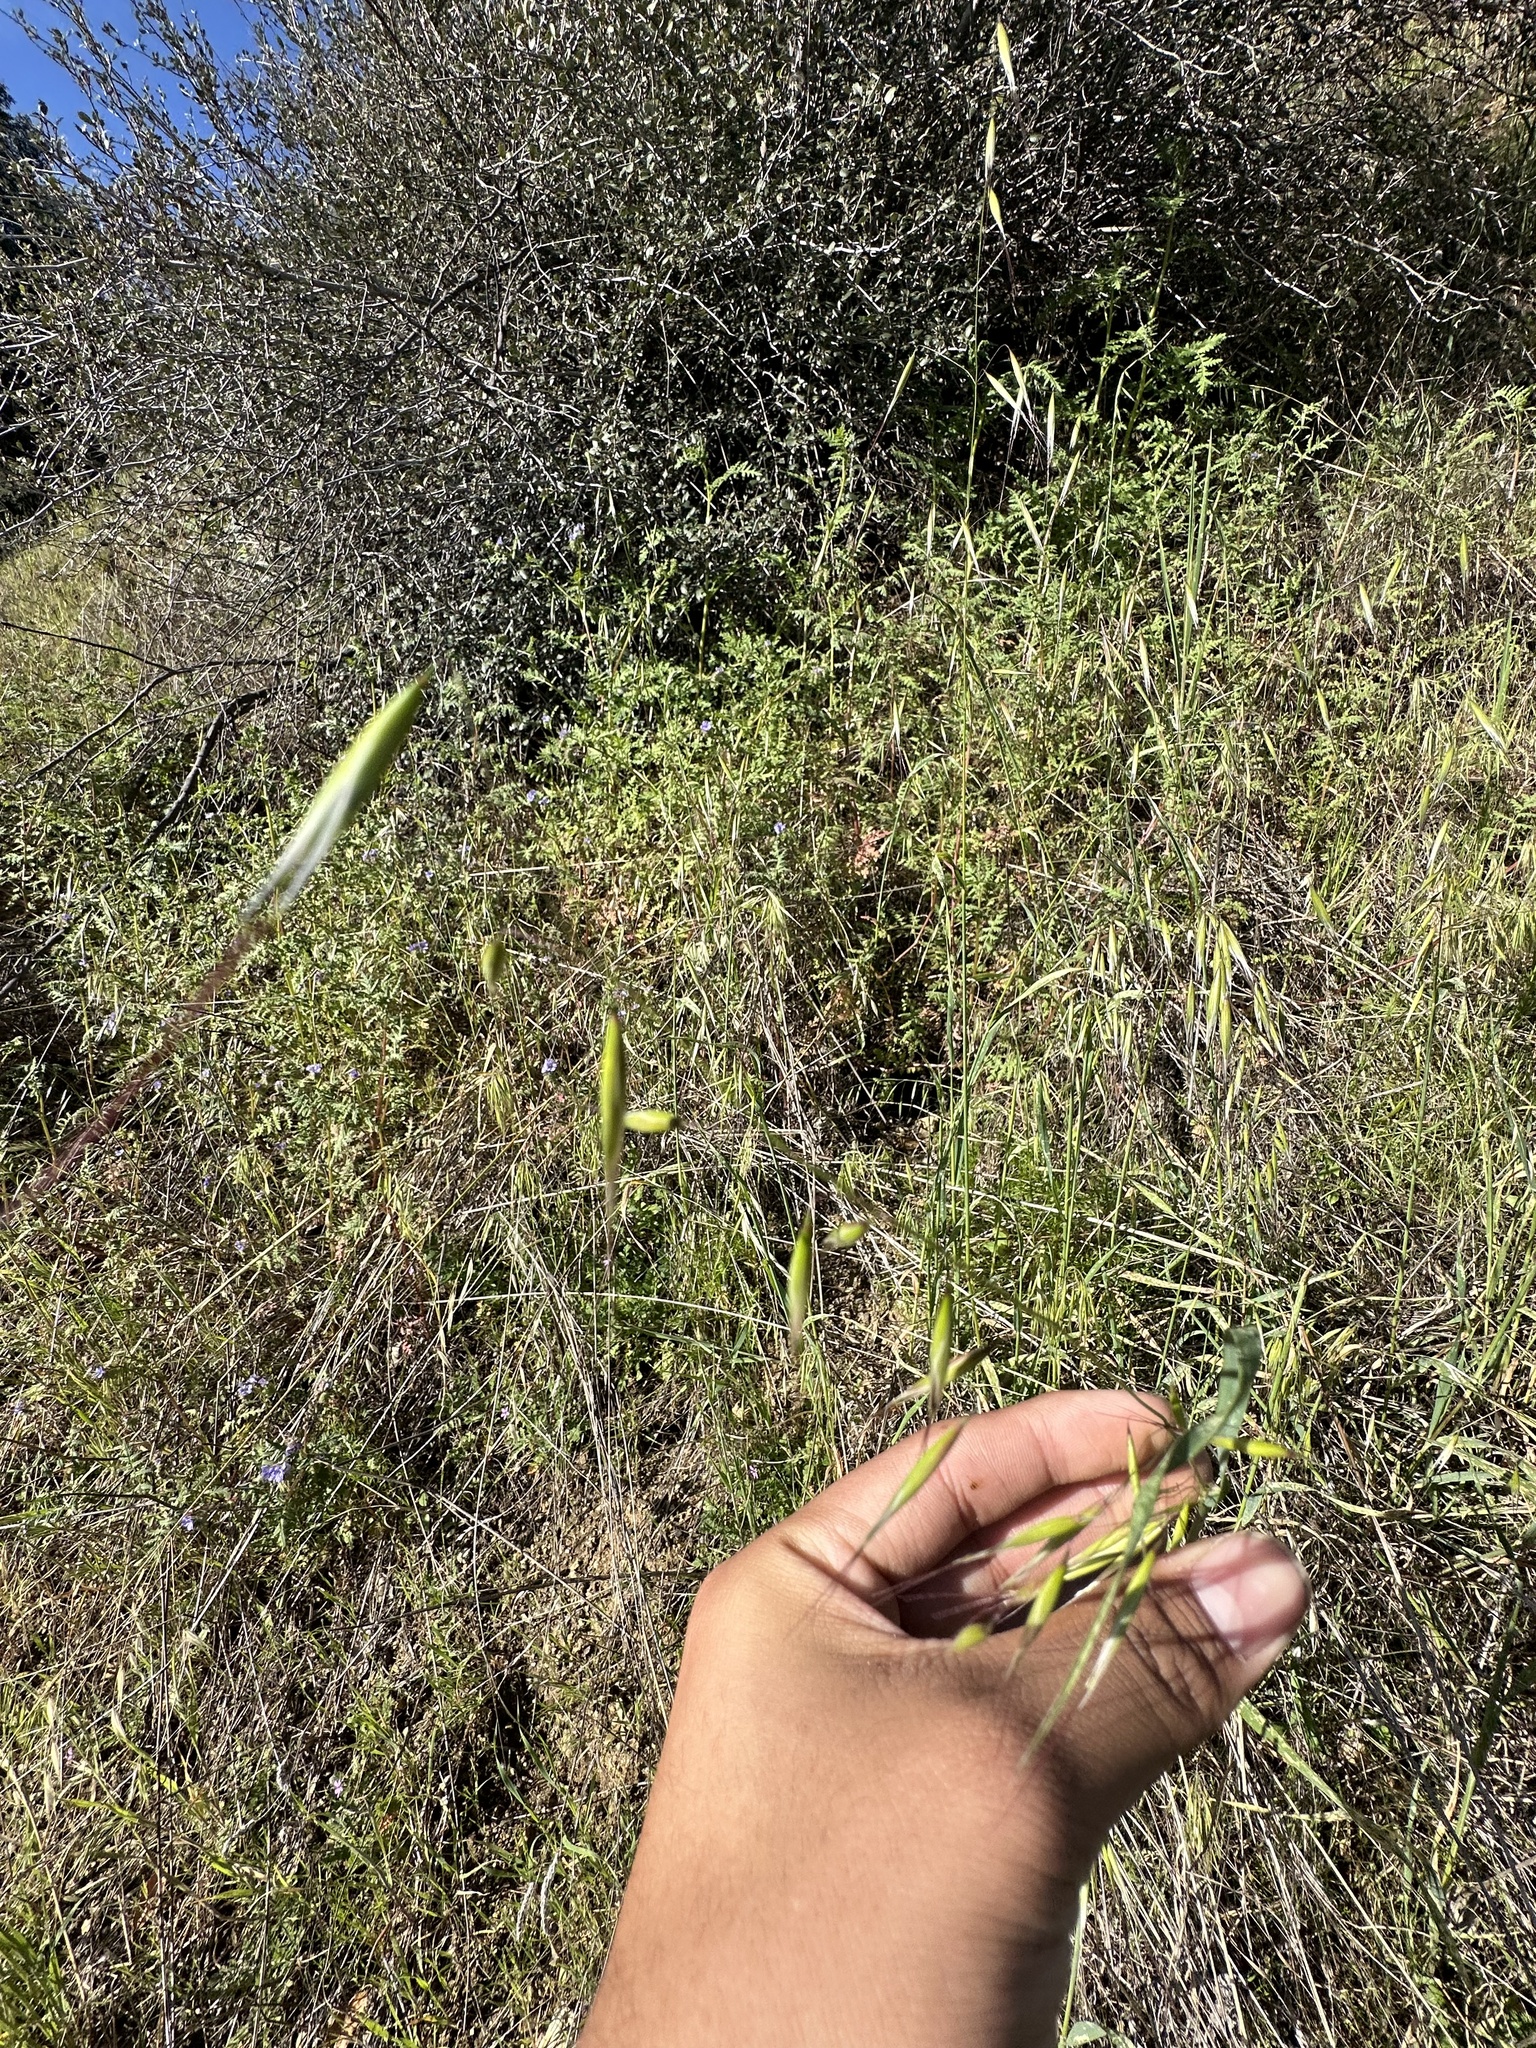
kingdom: Plantae
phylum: Tracheophyta
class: Liliopsida
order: Poales
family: Poaceae
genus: Avena
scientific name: Avena barbata
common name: Slender oat
